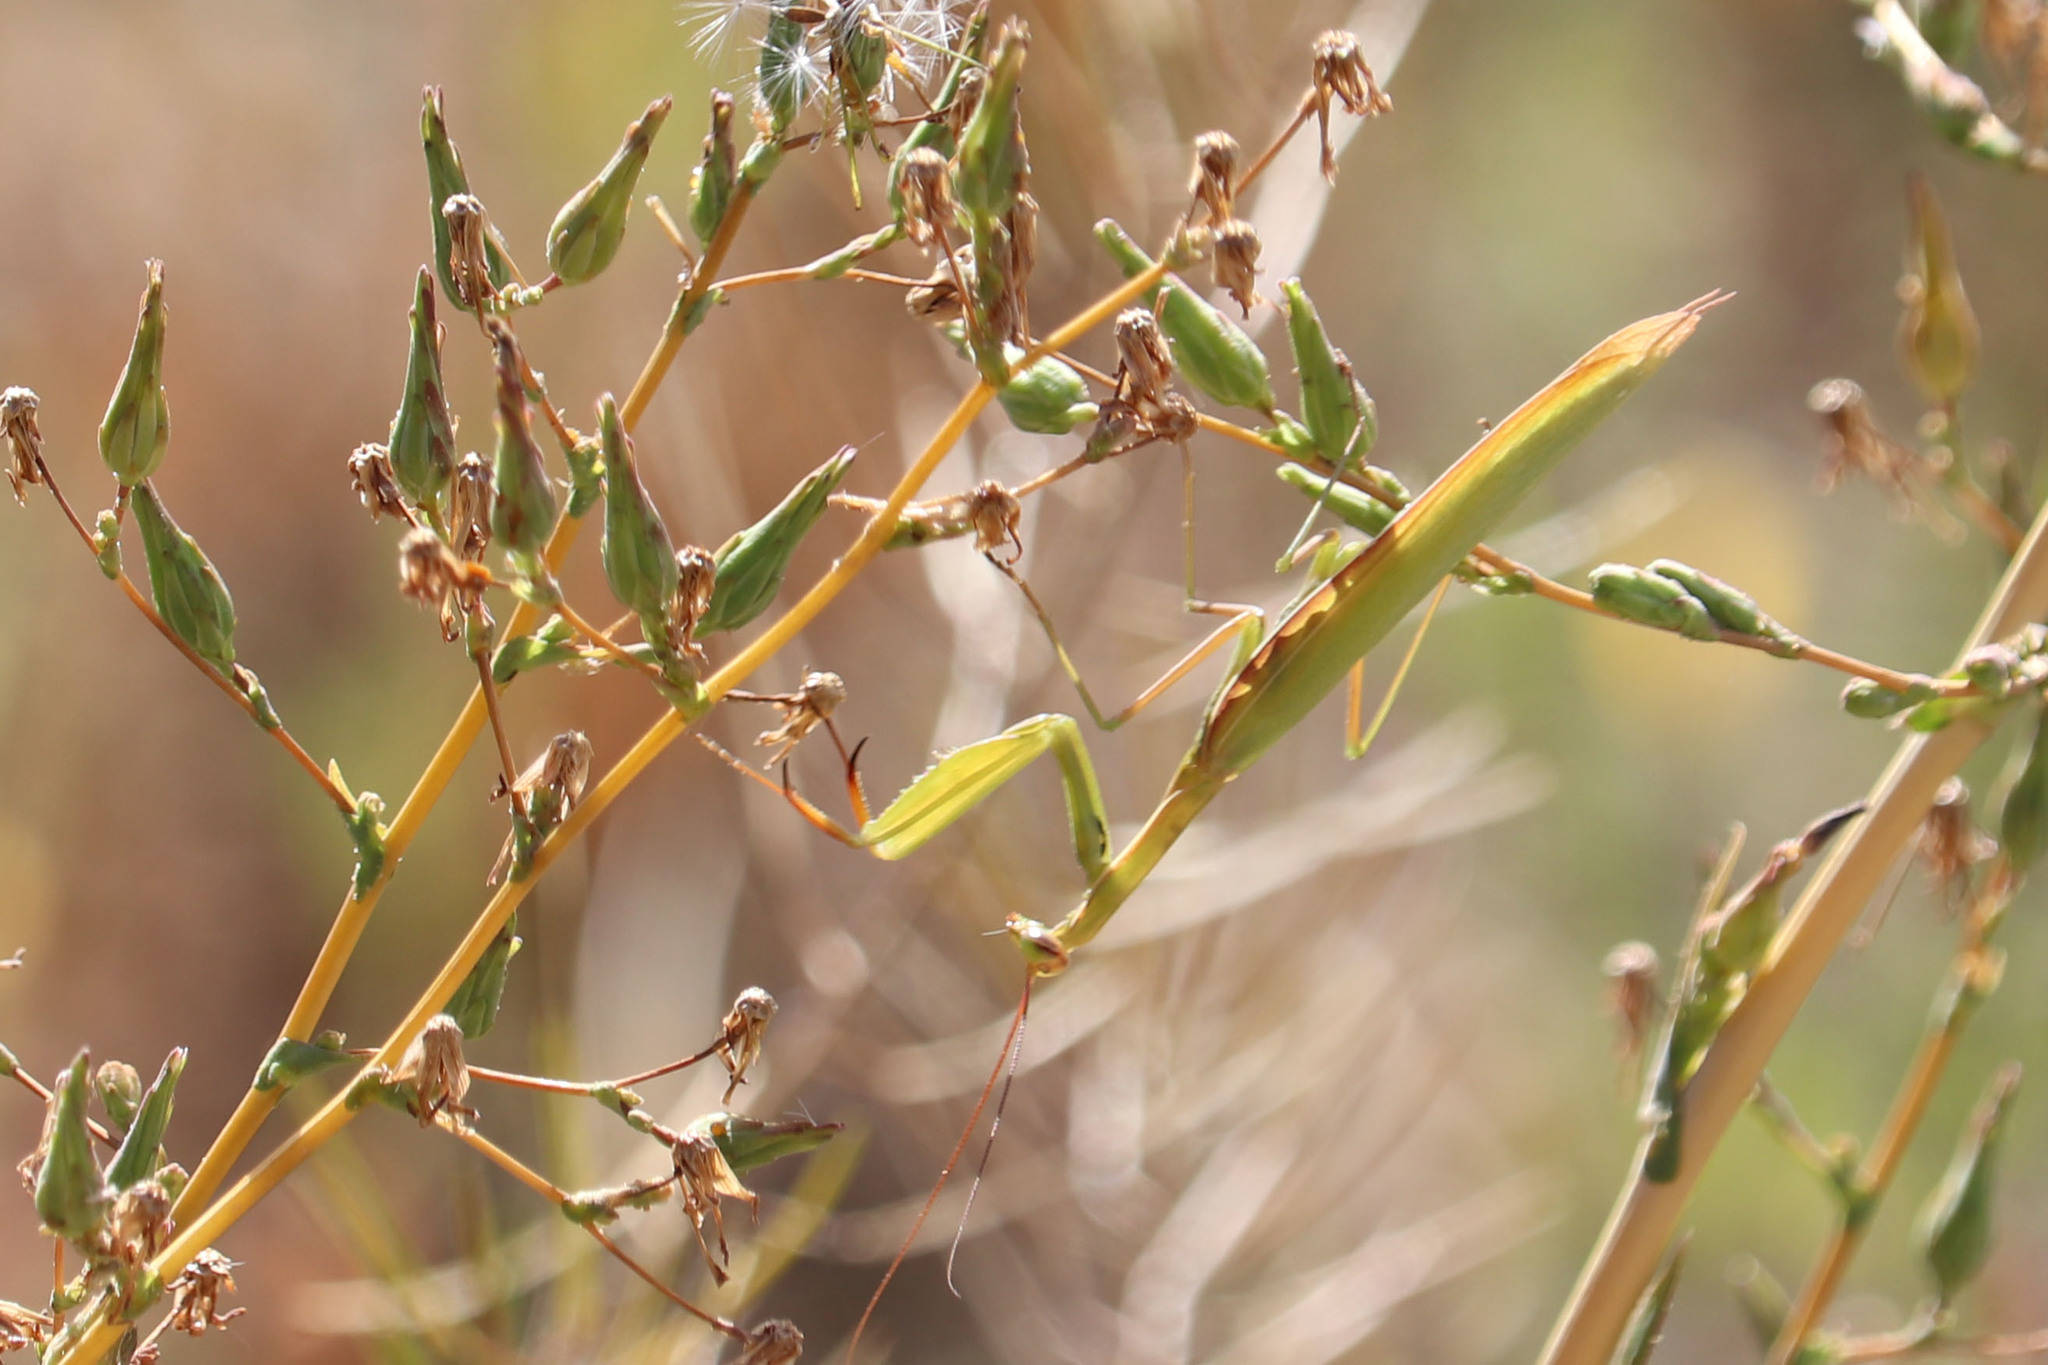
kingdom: Animalia
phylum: Arthropoda
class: Insecta
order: Mantodea
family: Mantidae
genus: Mantis
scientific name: Mantis religiosa
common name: Praying mantis
